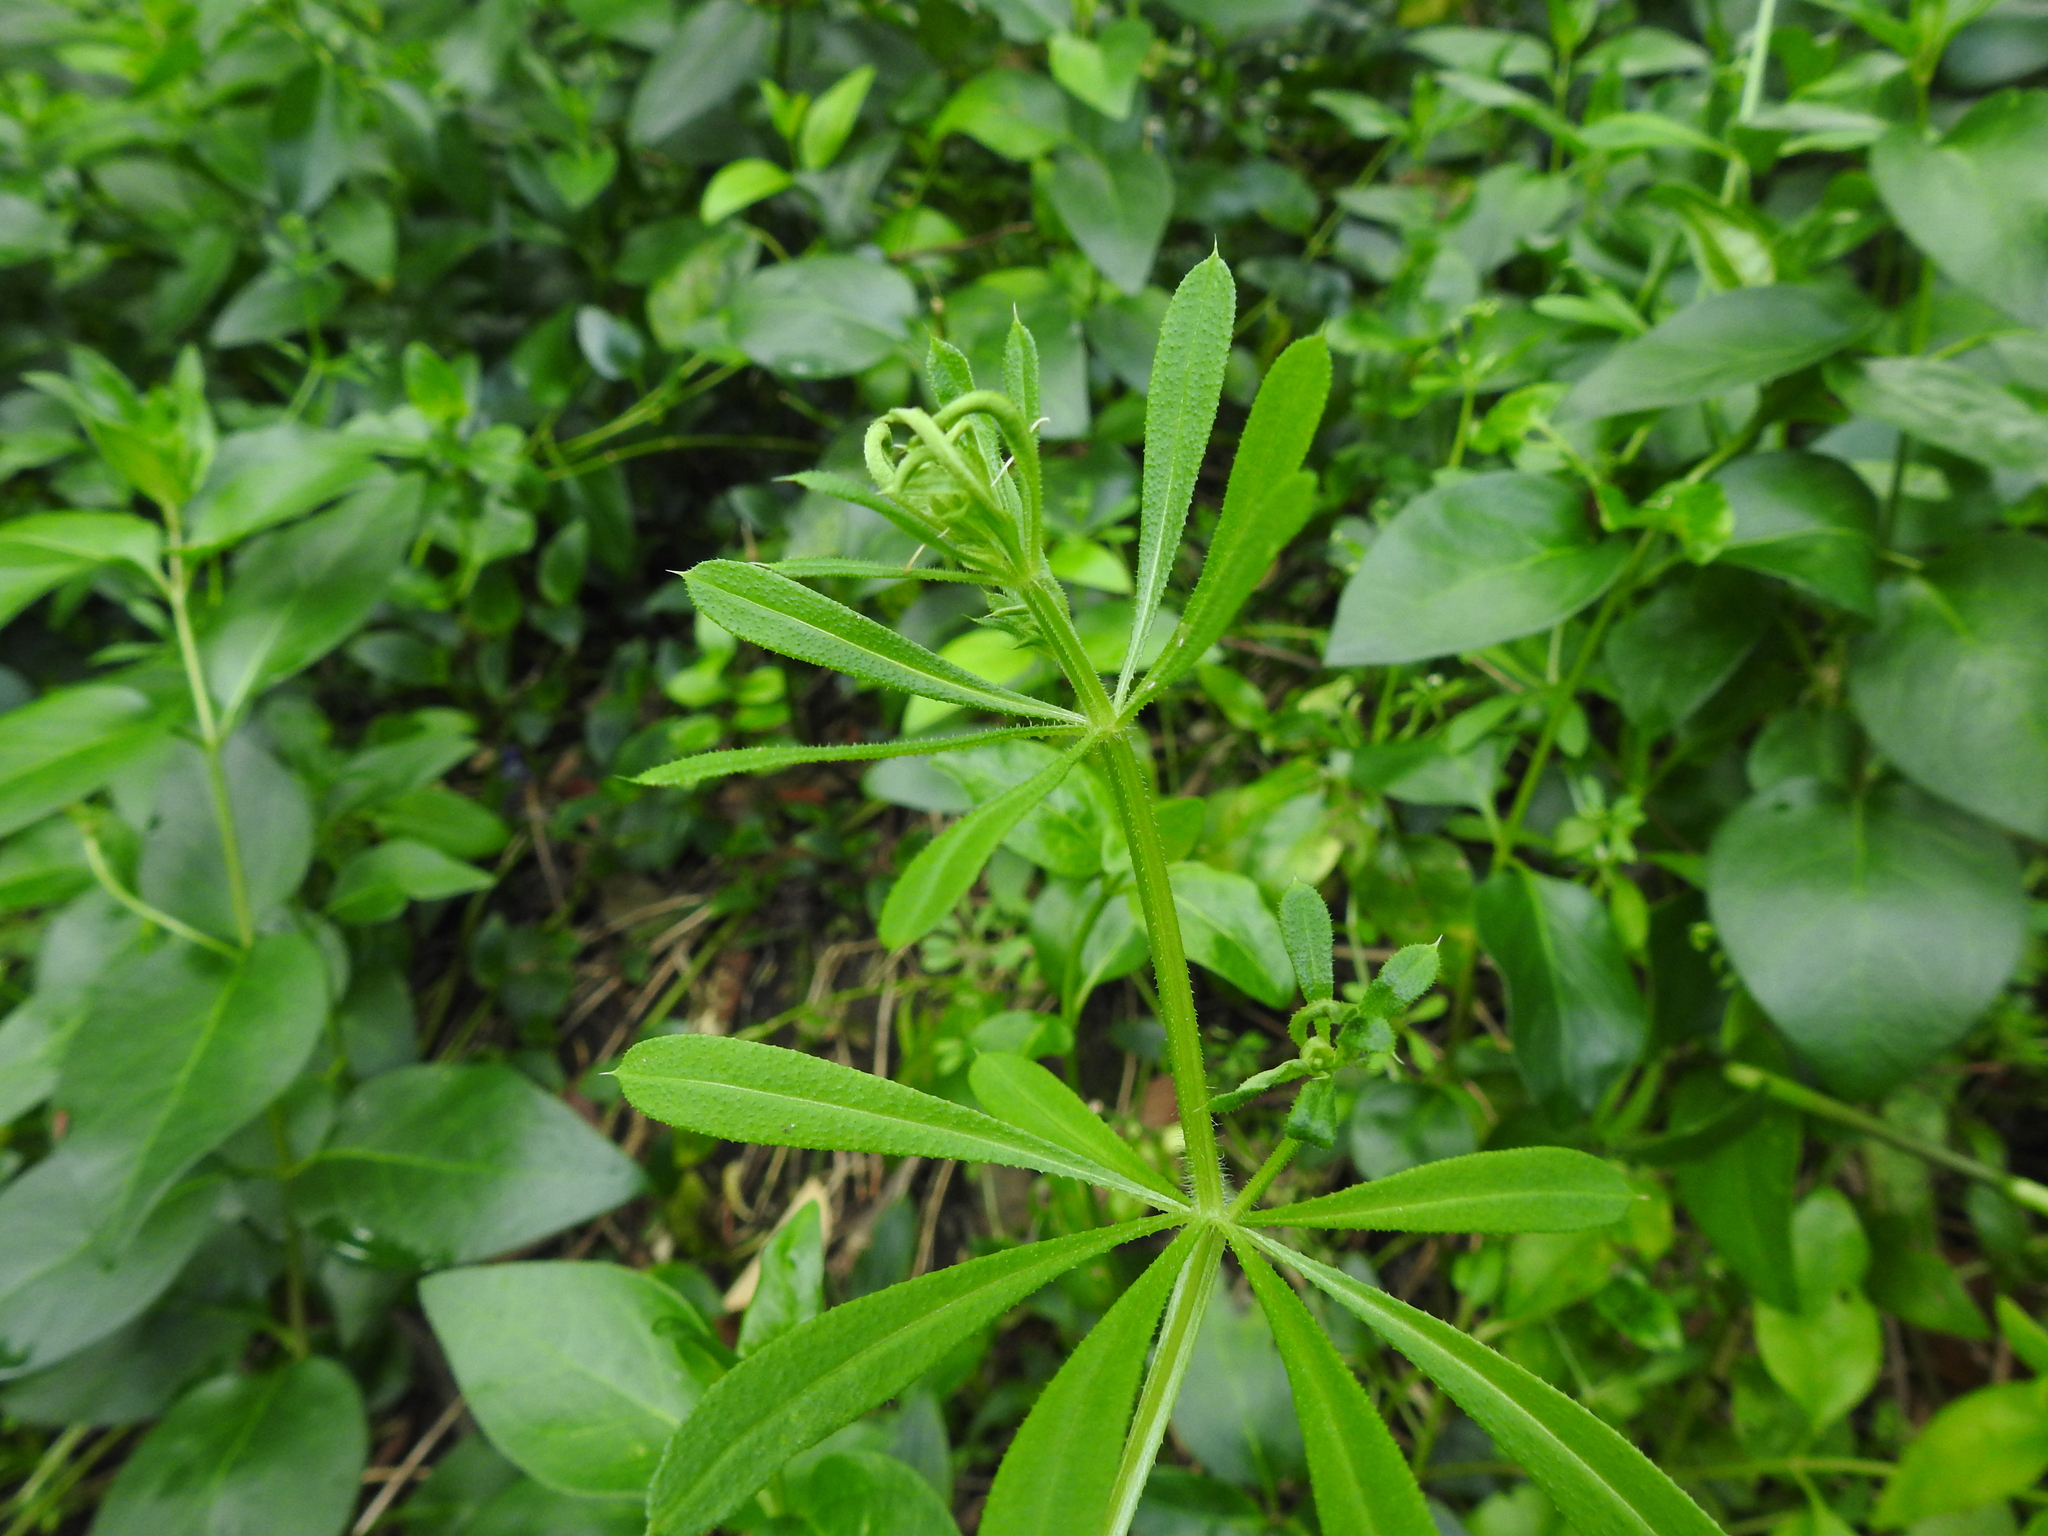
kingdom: Plantae
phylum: Tracheophyta
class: Magnoliopsida
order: Gentianales
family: Rubiaceae
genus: Galium
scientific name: Galium aparine
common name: Cleavers
